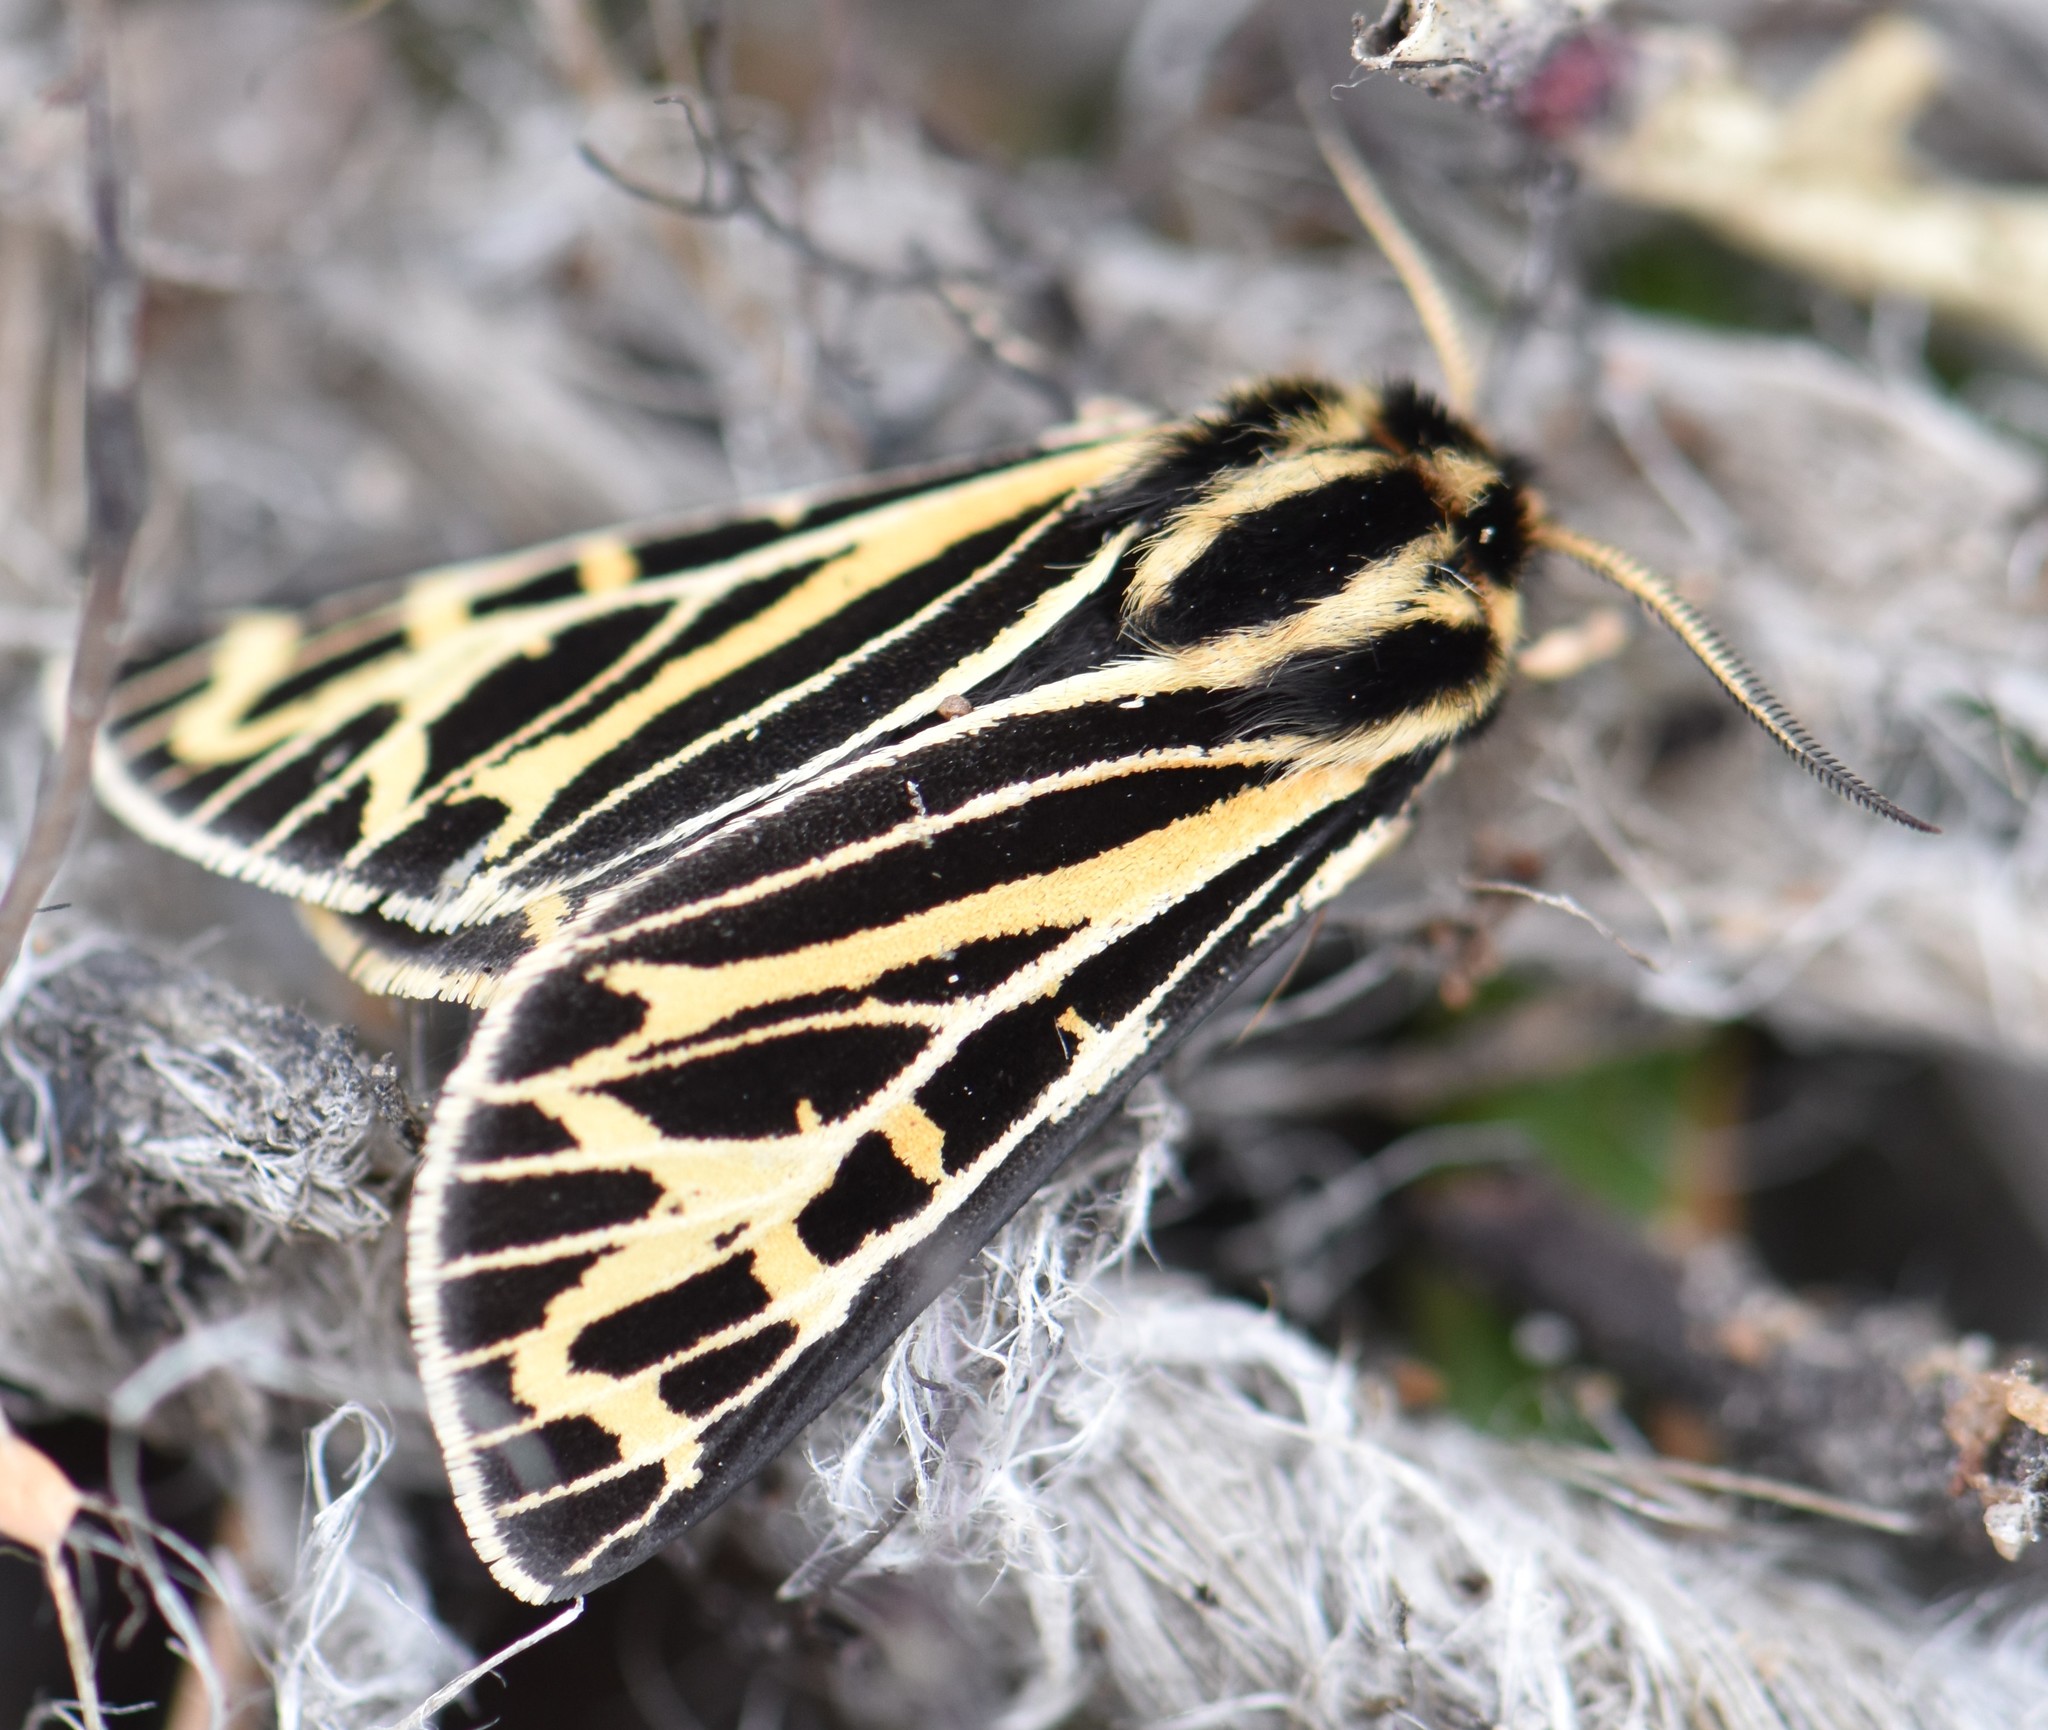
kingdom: Animalia
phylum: Arthropoda
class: Insecta
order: Lepidoptera
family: Erebidae
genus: Apantesis
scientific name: Apantesis quenseli
